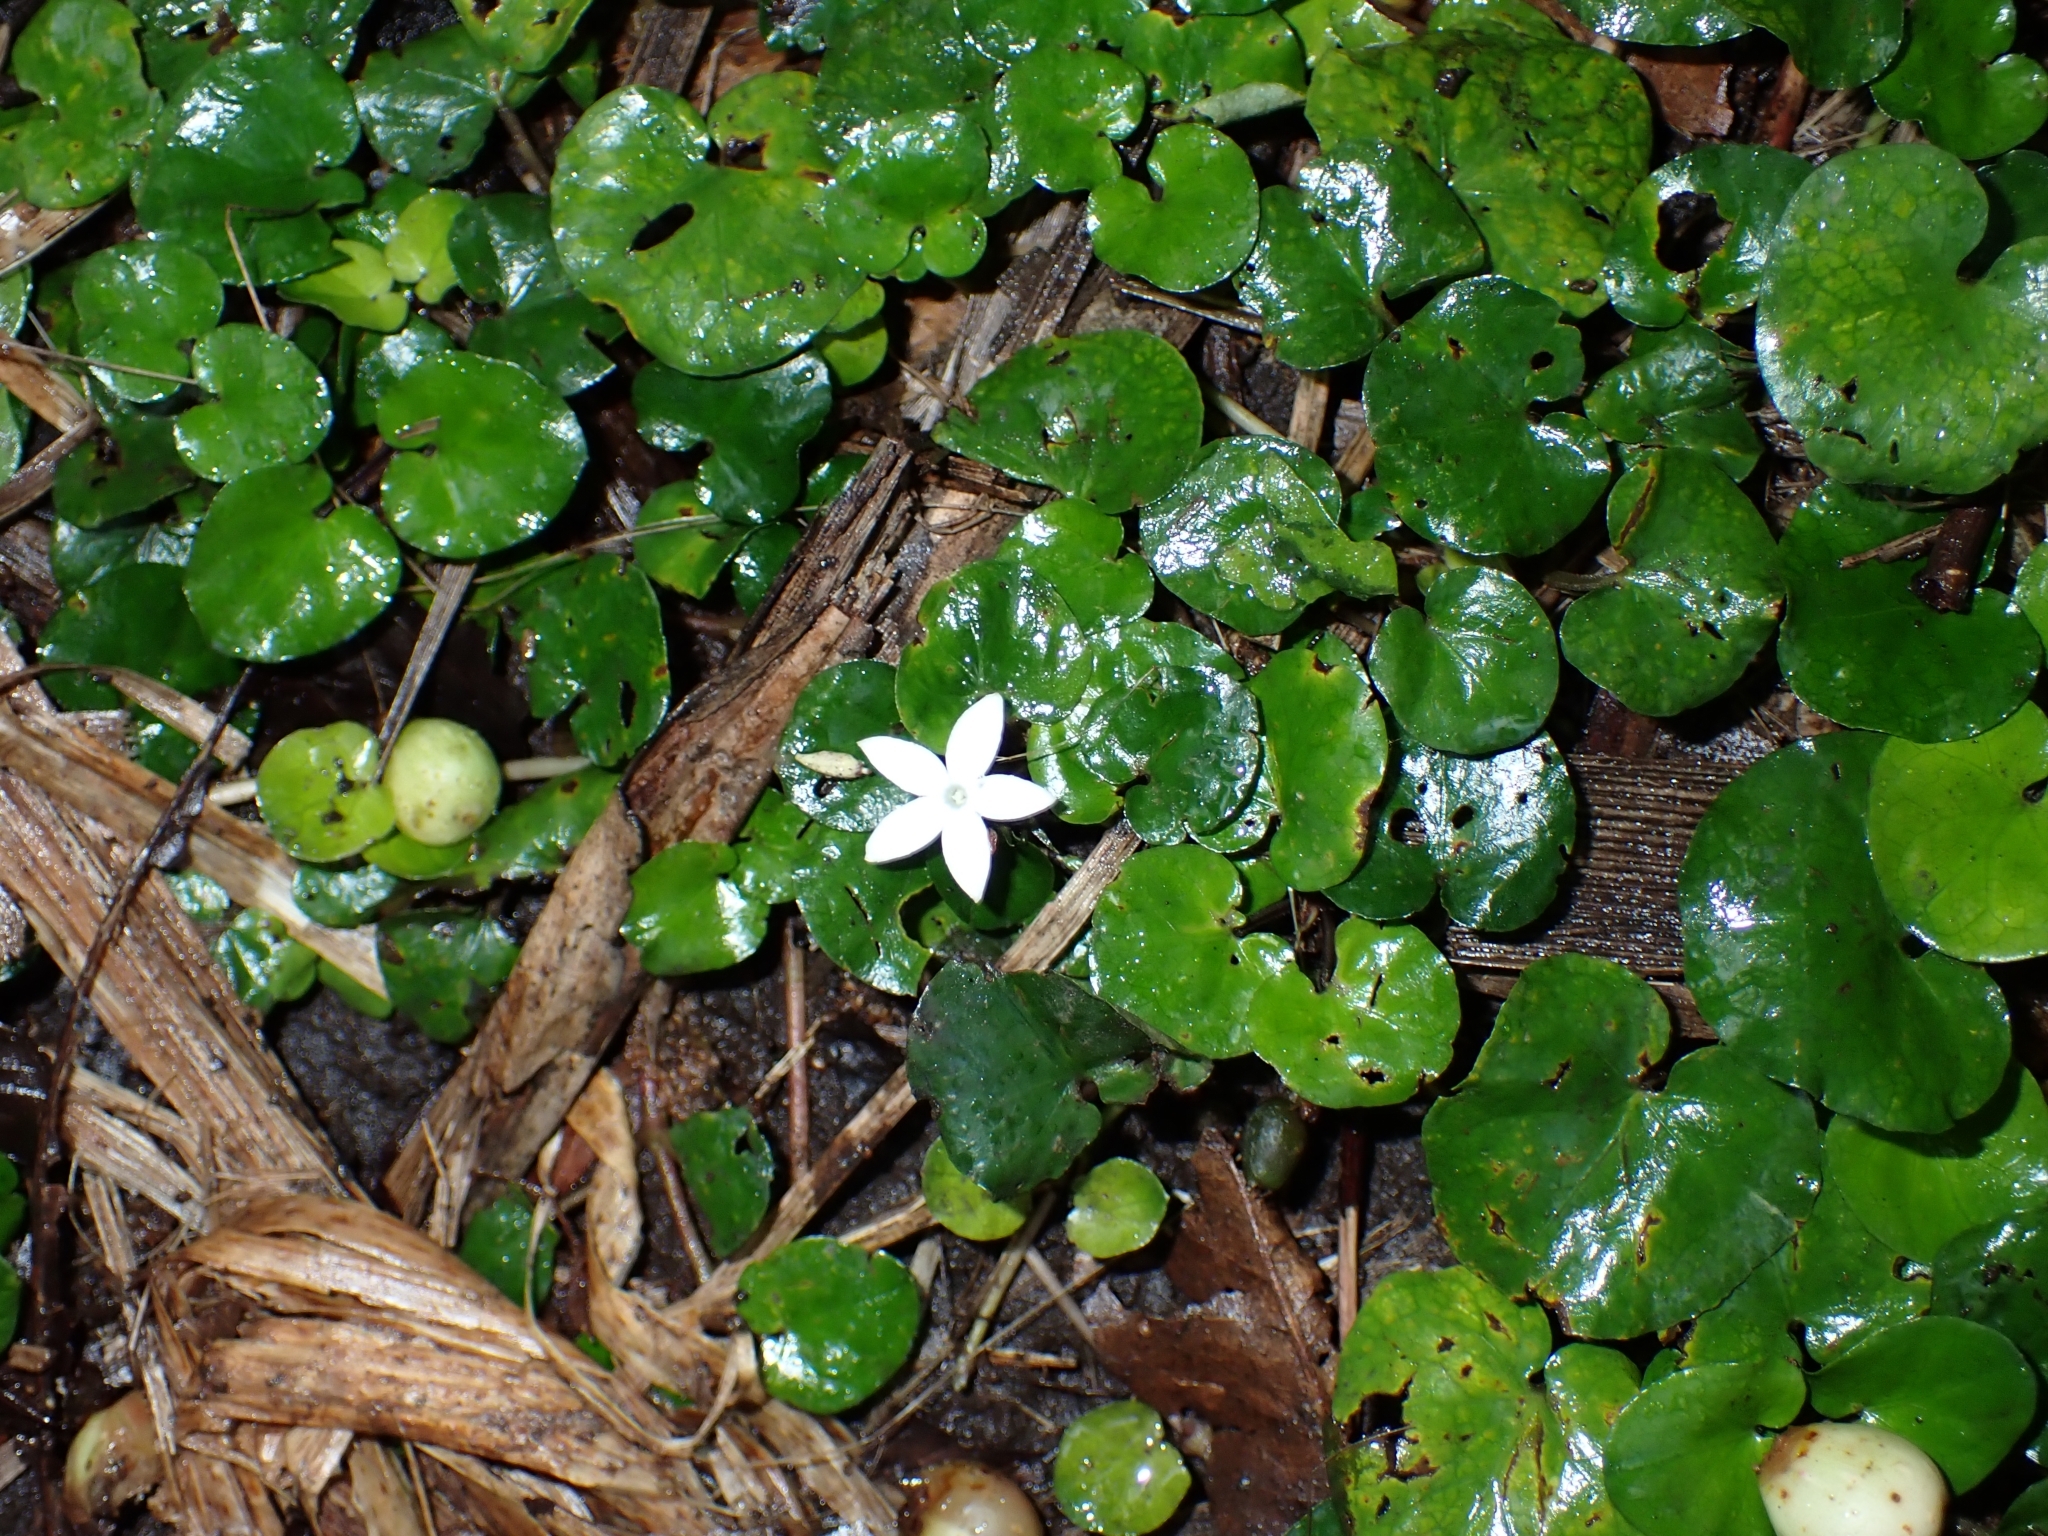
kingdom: Plantae
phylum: Tracheophyta
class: Magnoliopsida
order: Gentianales
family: Rubiaceae
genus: Geophila
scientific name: Geophila herbacea
